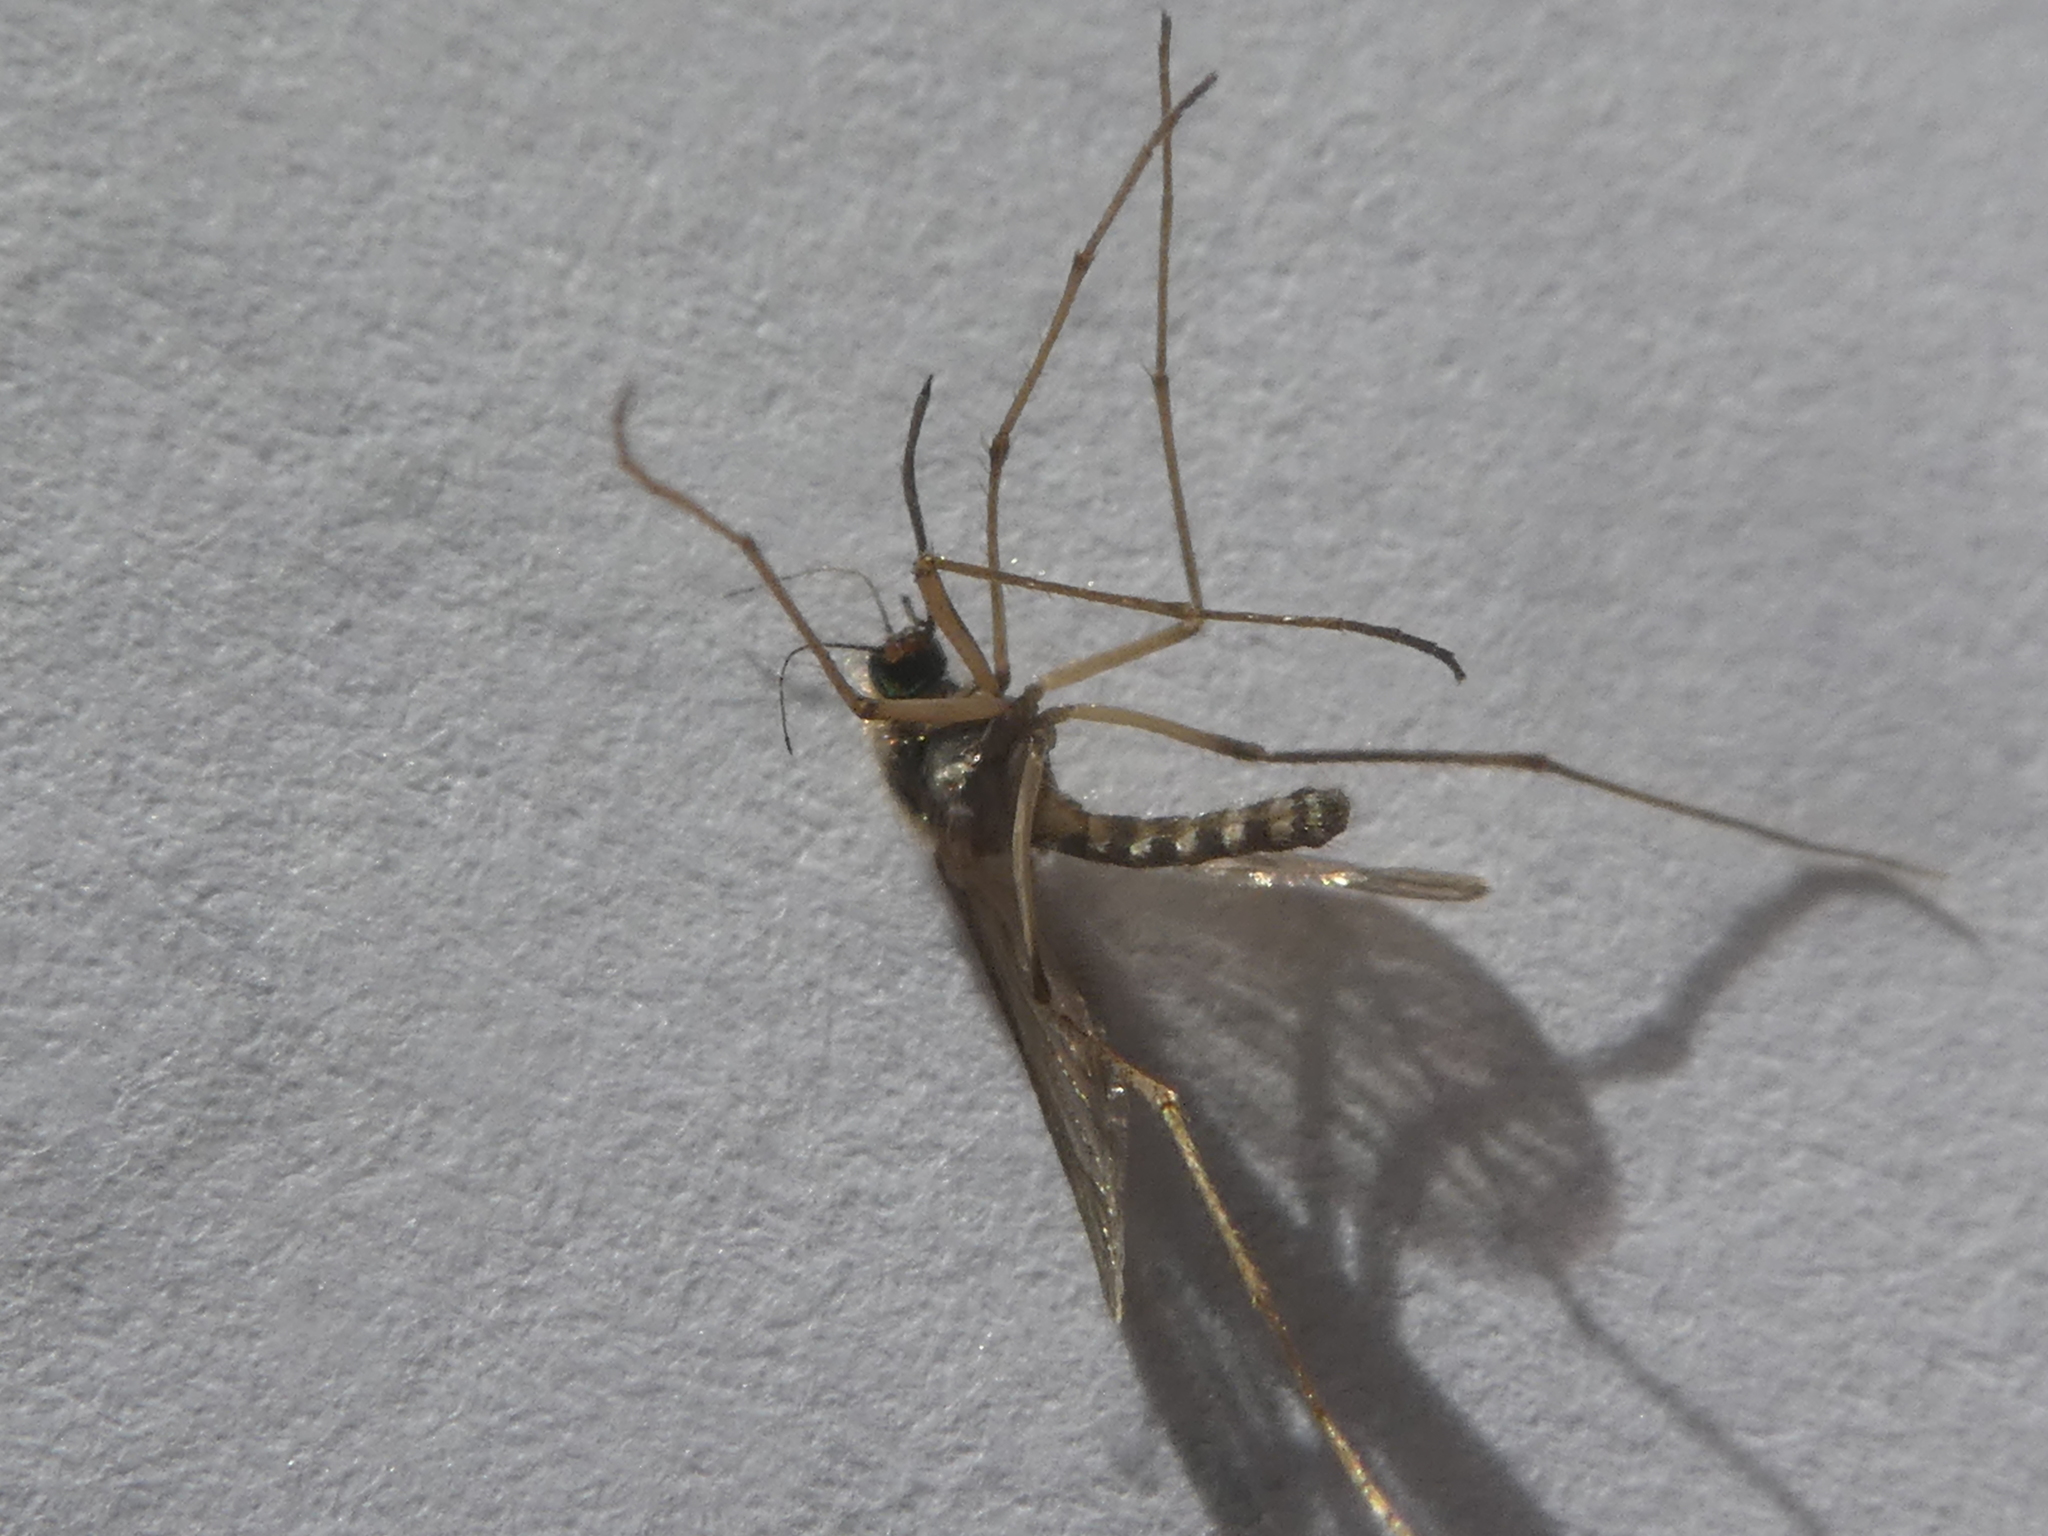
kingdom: Animalia
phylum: Arthropoda
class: Insecta
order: Diptera
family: Culicidae
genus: Coquillettidia
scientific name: Coquillettidia iracunda
